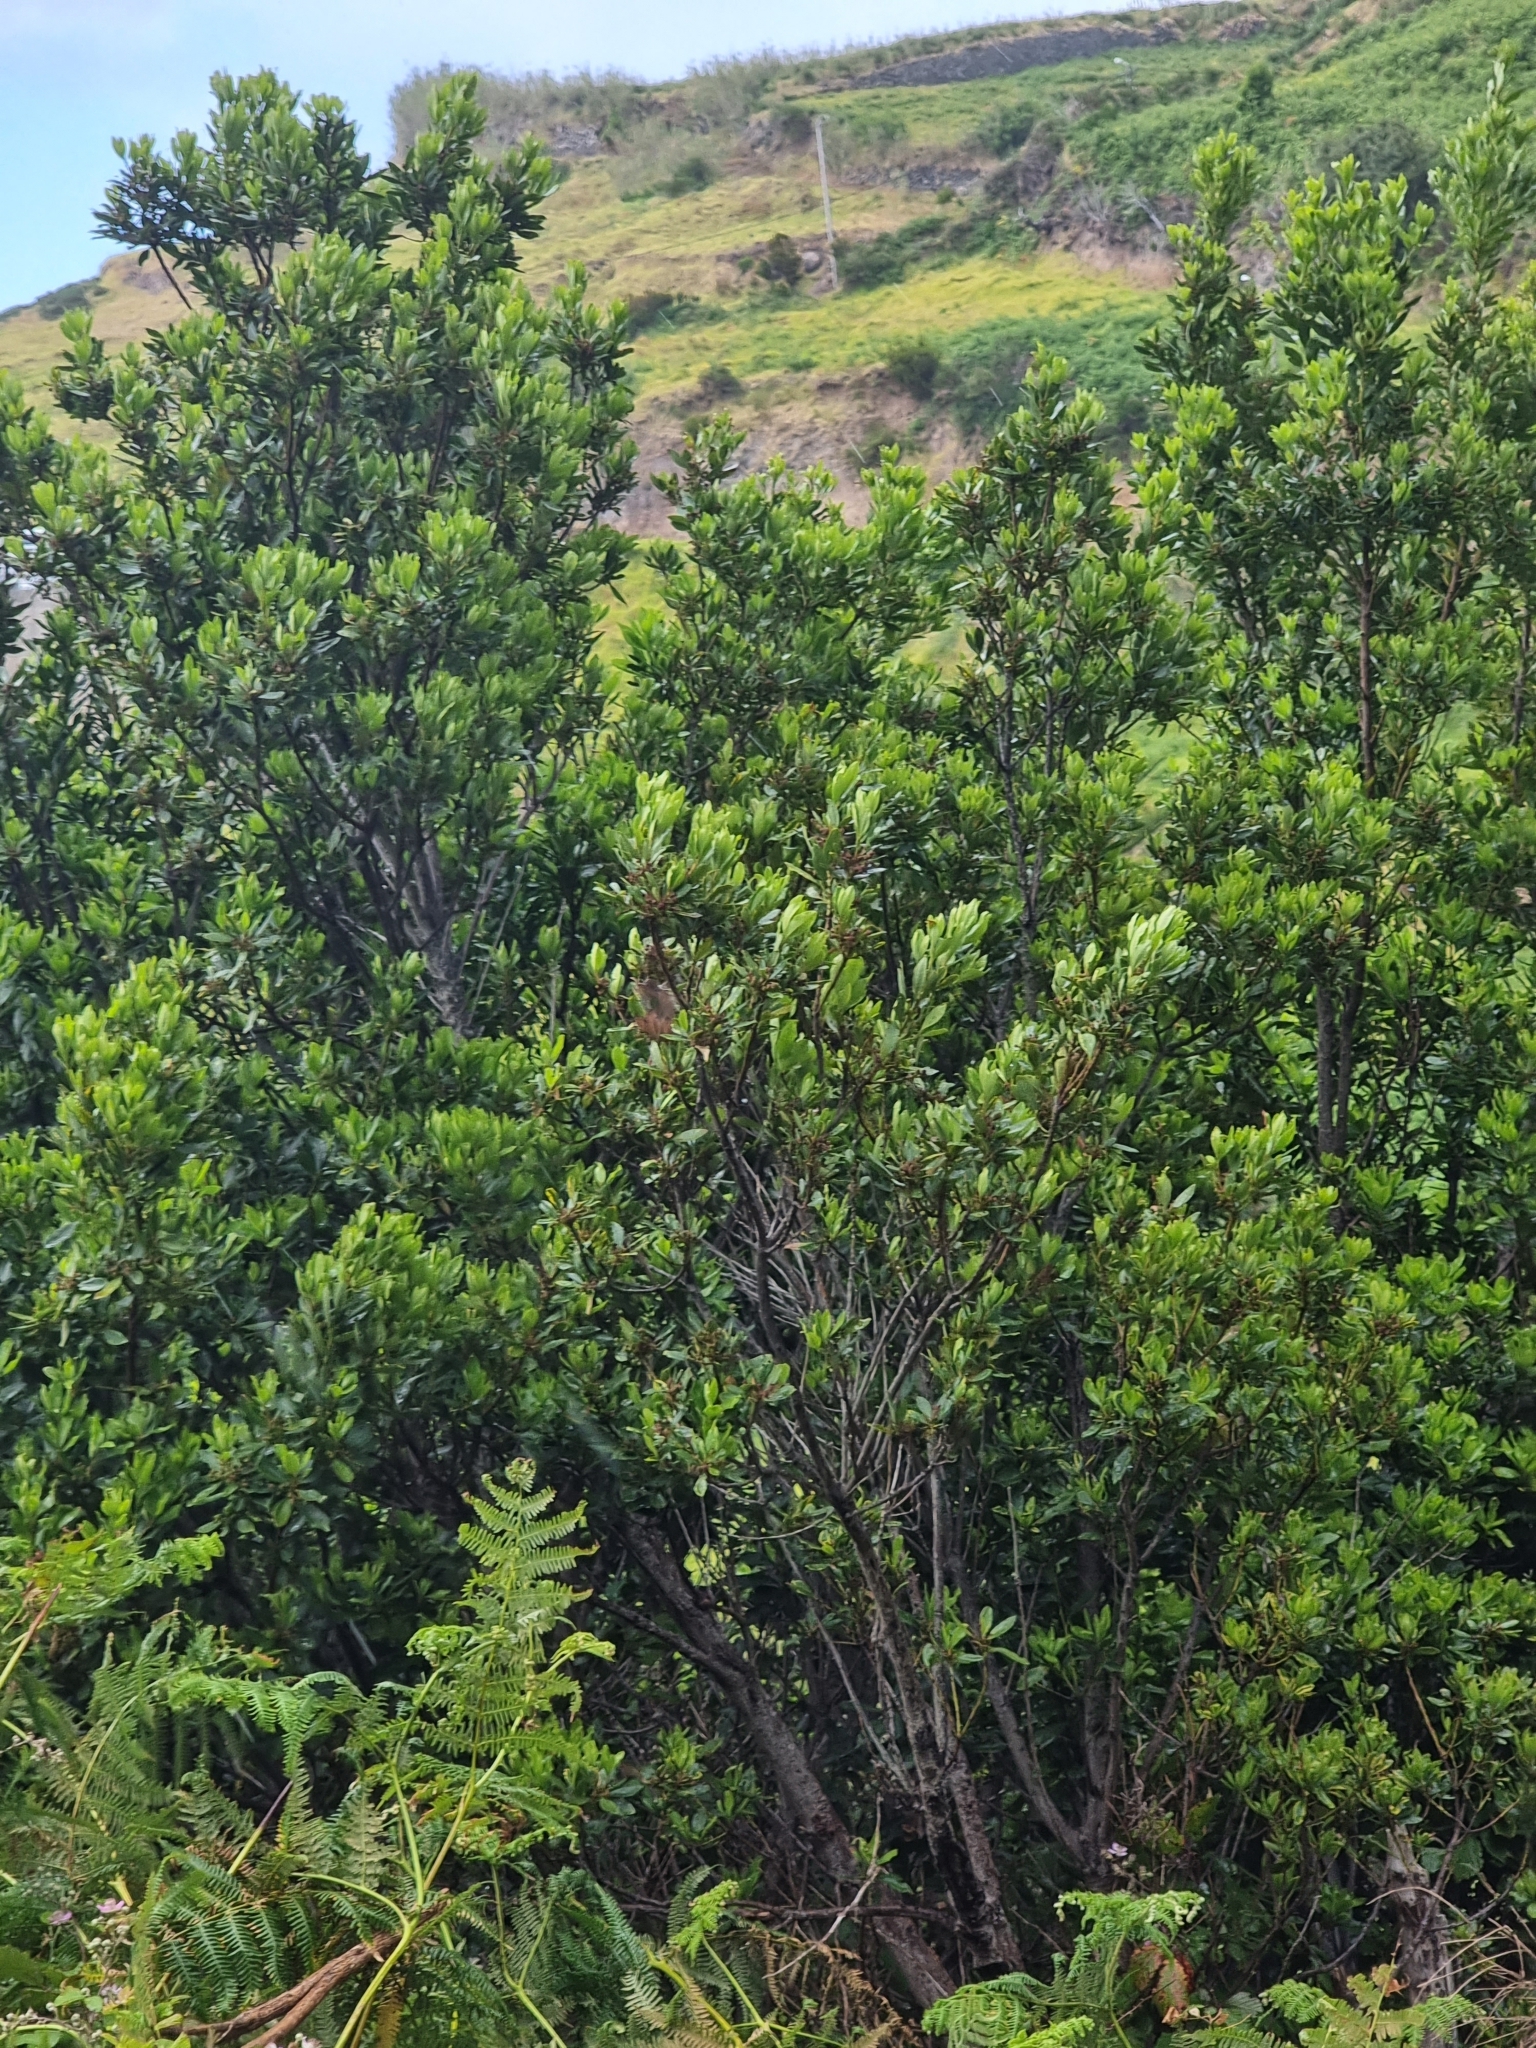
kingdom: Plantae
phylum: Tracheophyta
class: Magnoliopsida
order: Fagales
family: Myricaceae
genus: Morella
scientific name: Morella faya
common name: Firetree
